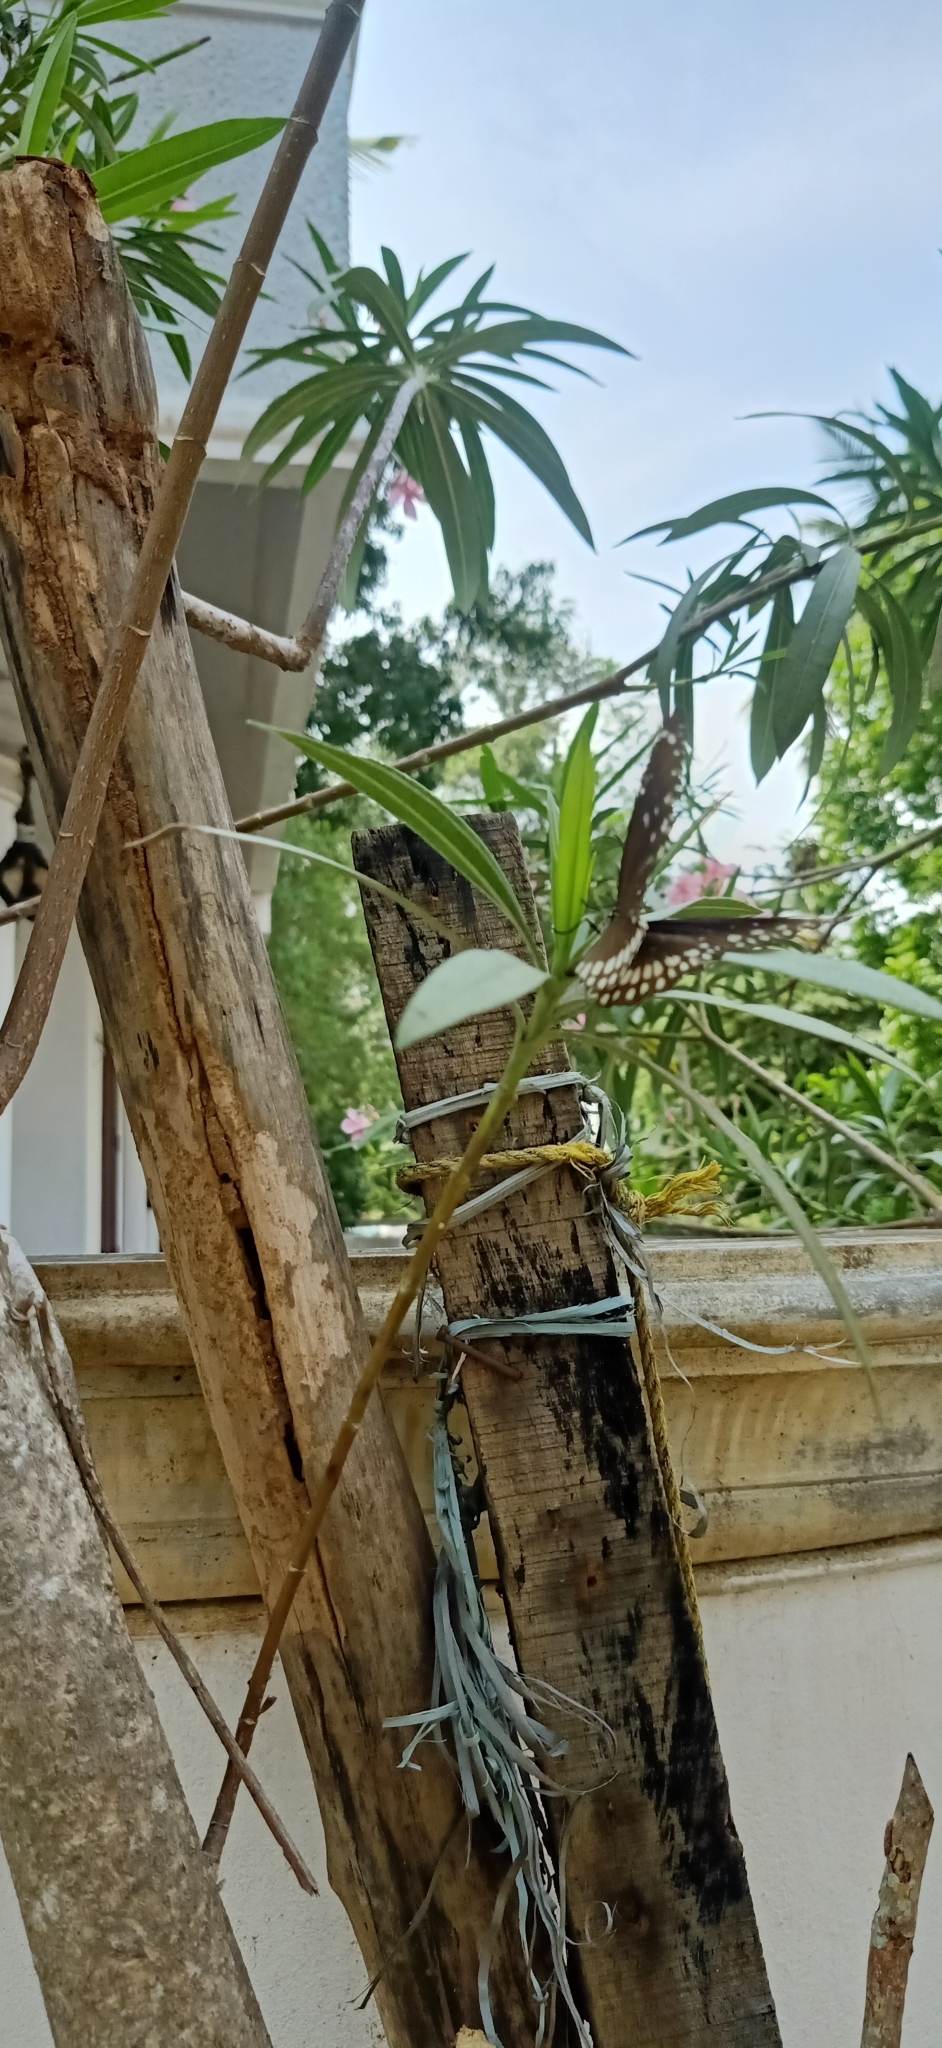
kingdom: Animalia
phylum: Arthropoda
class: Insecta
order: Lepidoptera
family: Nymphalidae
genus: Euploea
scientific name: Euploea core
